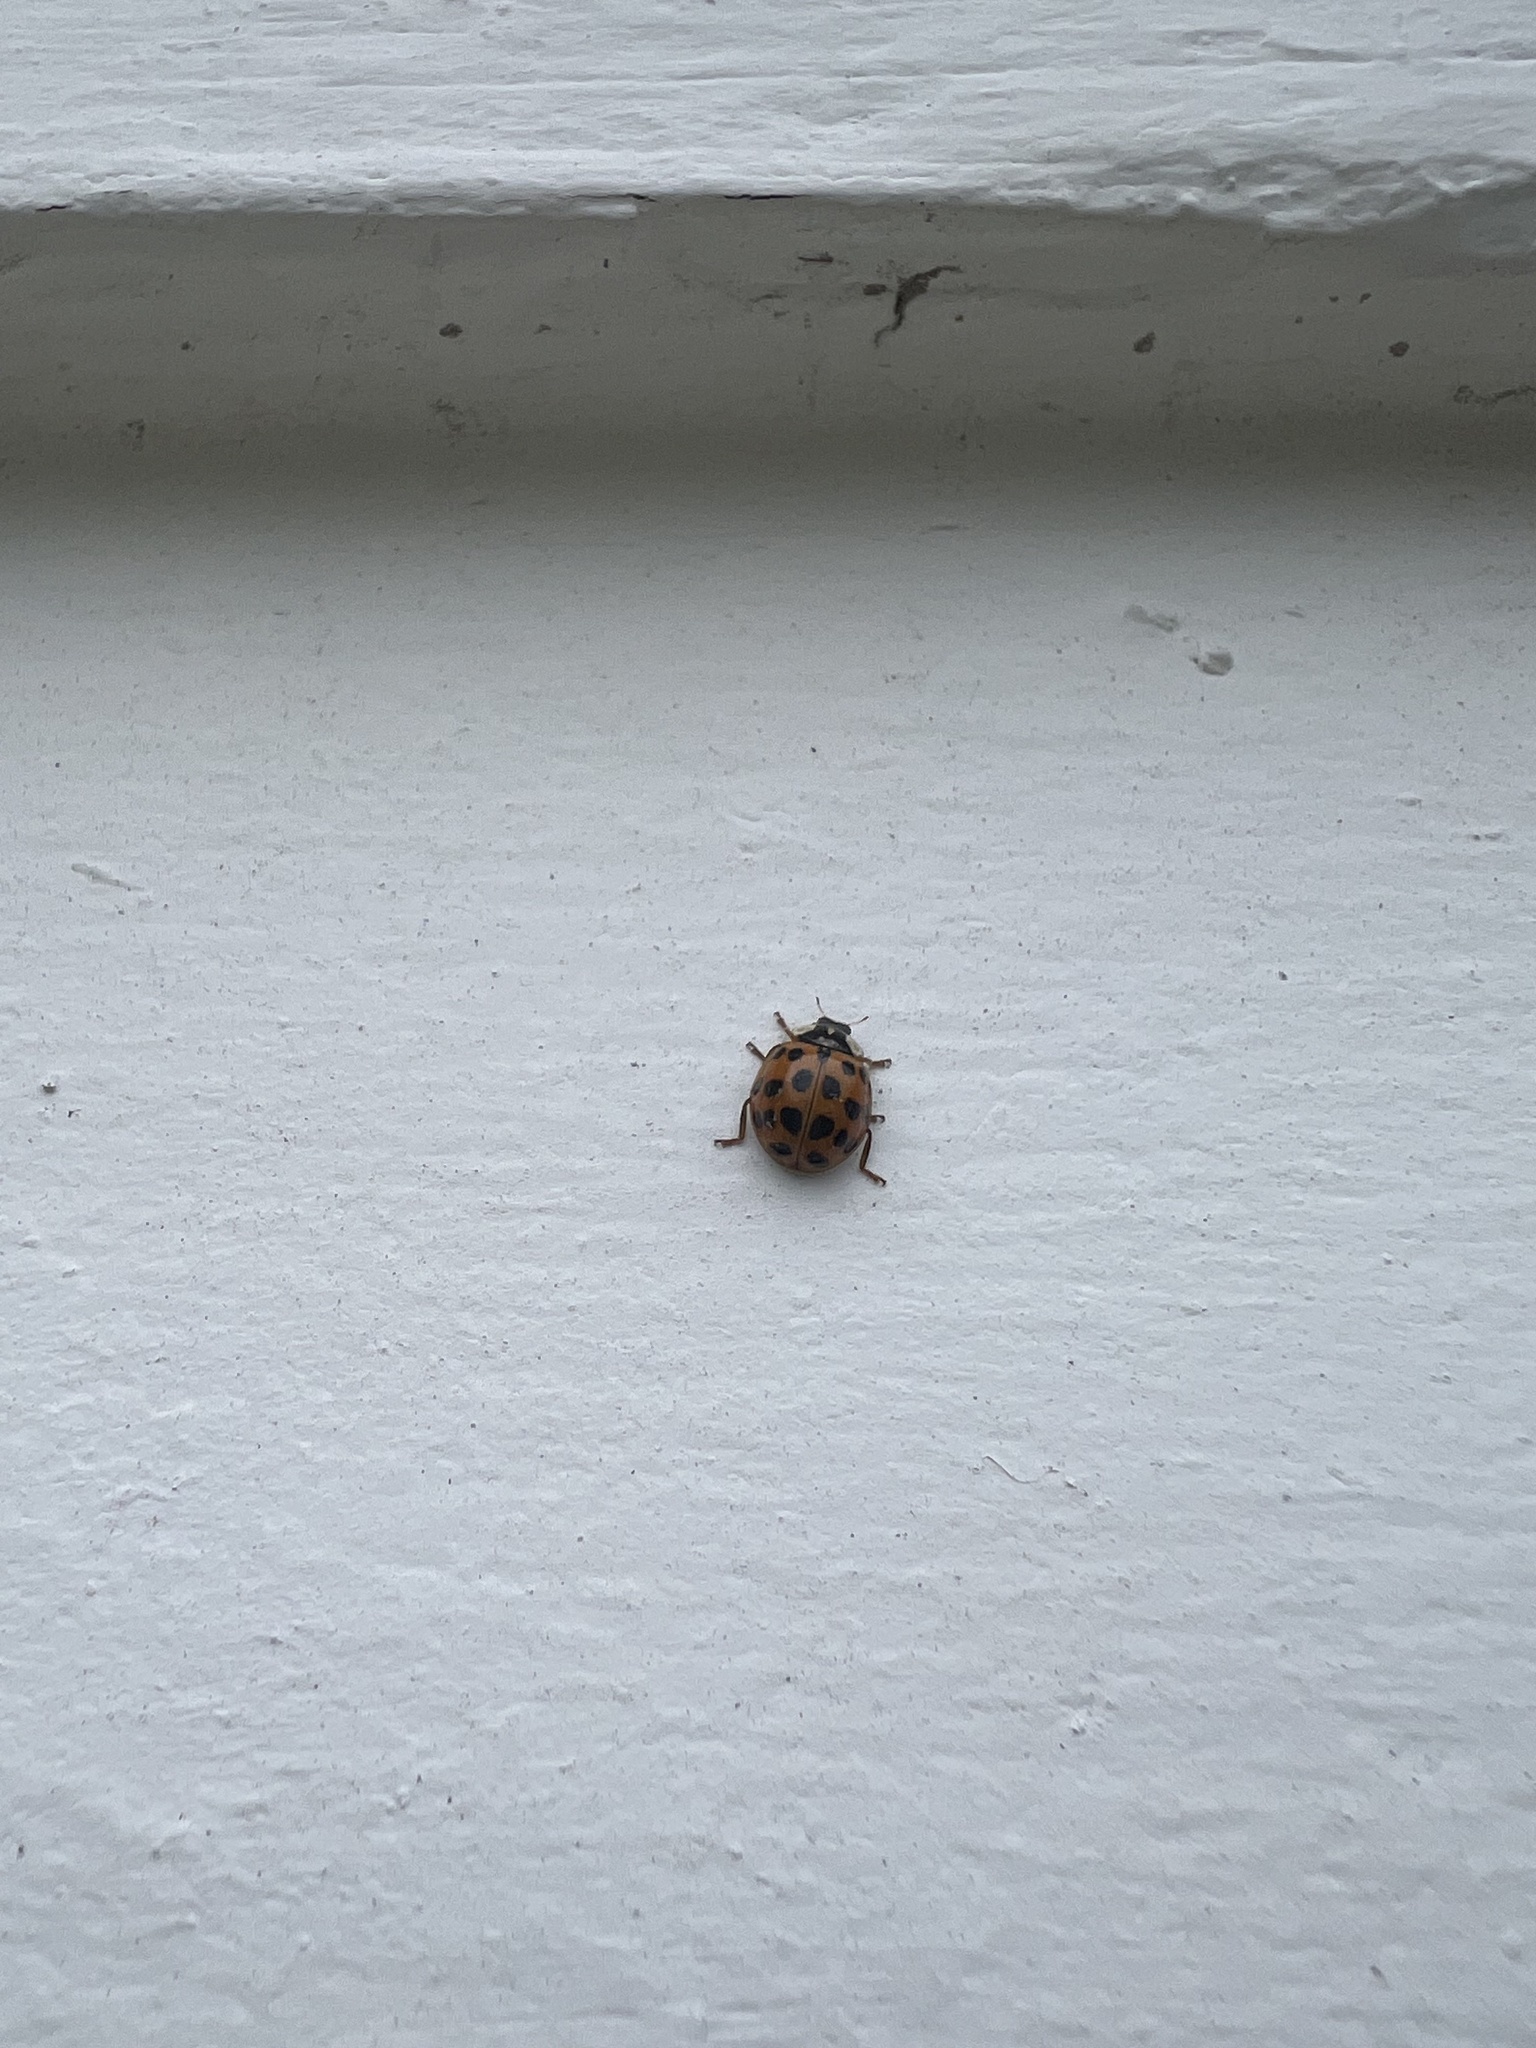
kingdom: Animalia
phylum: Arthropoda
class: Insecta
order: Coleoptera
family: Coccinellidae
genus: Harmonia
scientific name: Harmonia axyridis
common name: Harlequin ladybird
